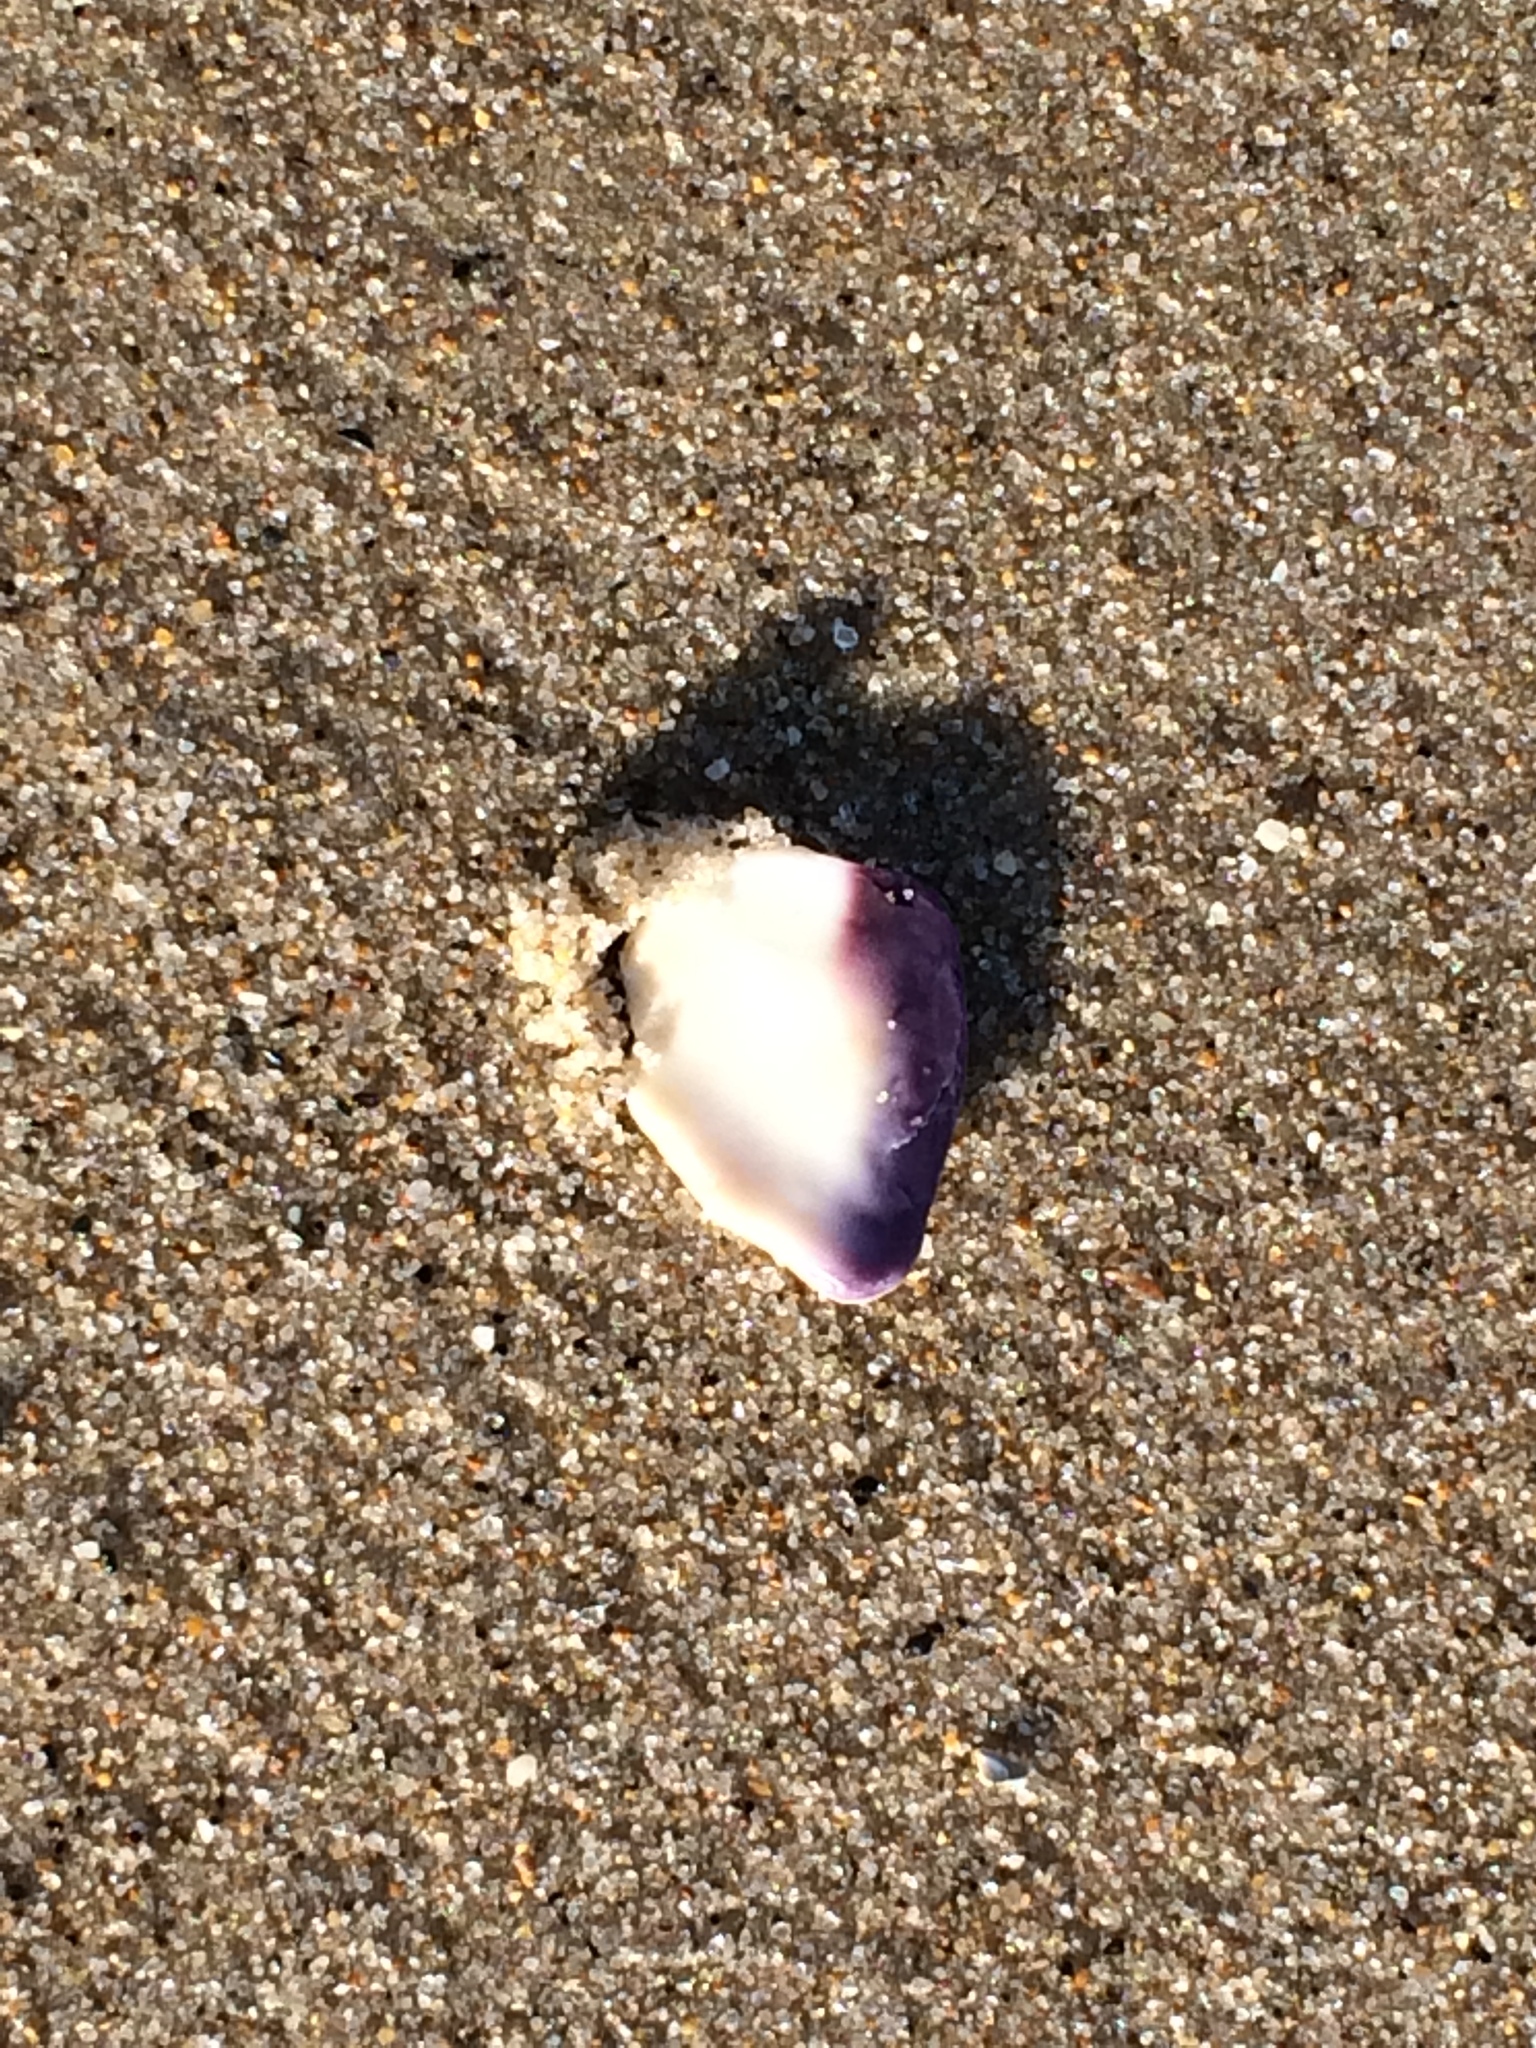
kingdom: Animalia
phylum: Mollusca
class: Bivalvia
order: Venerida
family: Veneridae
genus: Mercenaria
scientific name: Mercenaria mercenaria
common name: American hard-shelled clam
